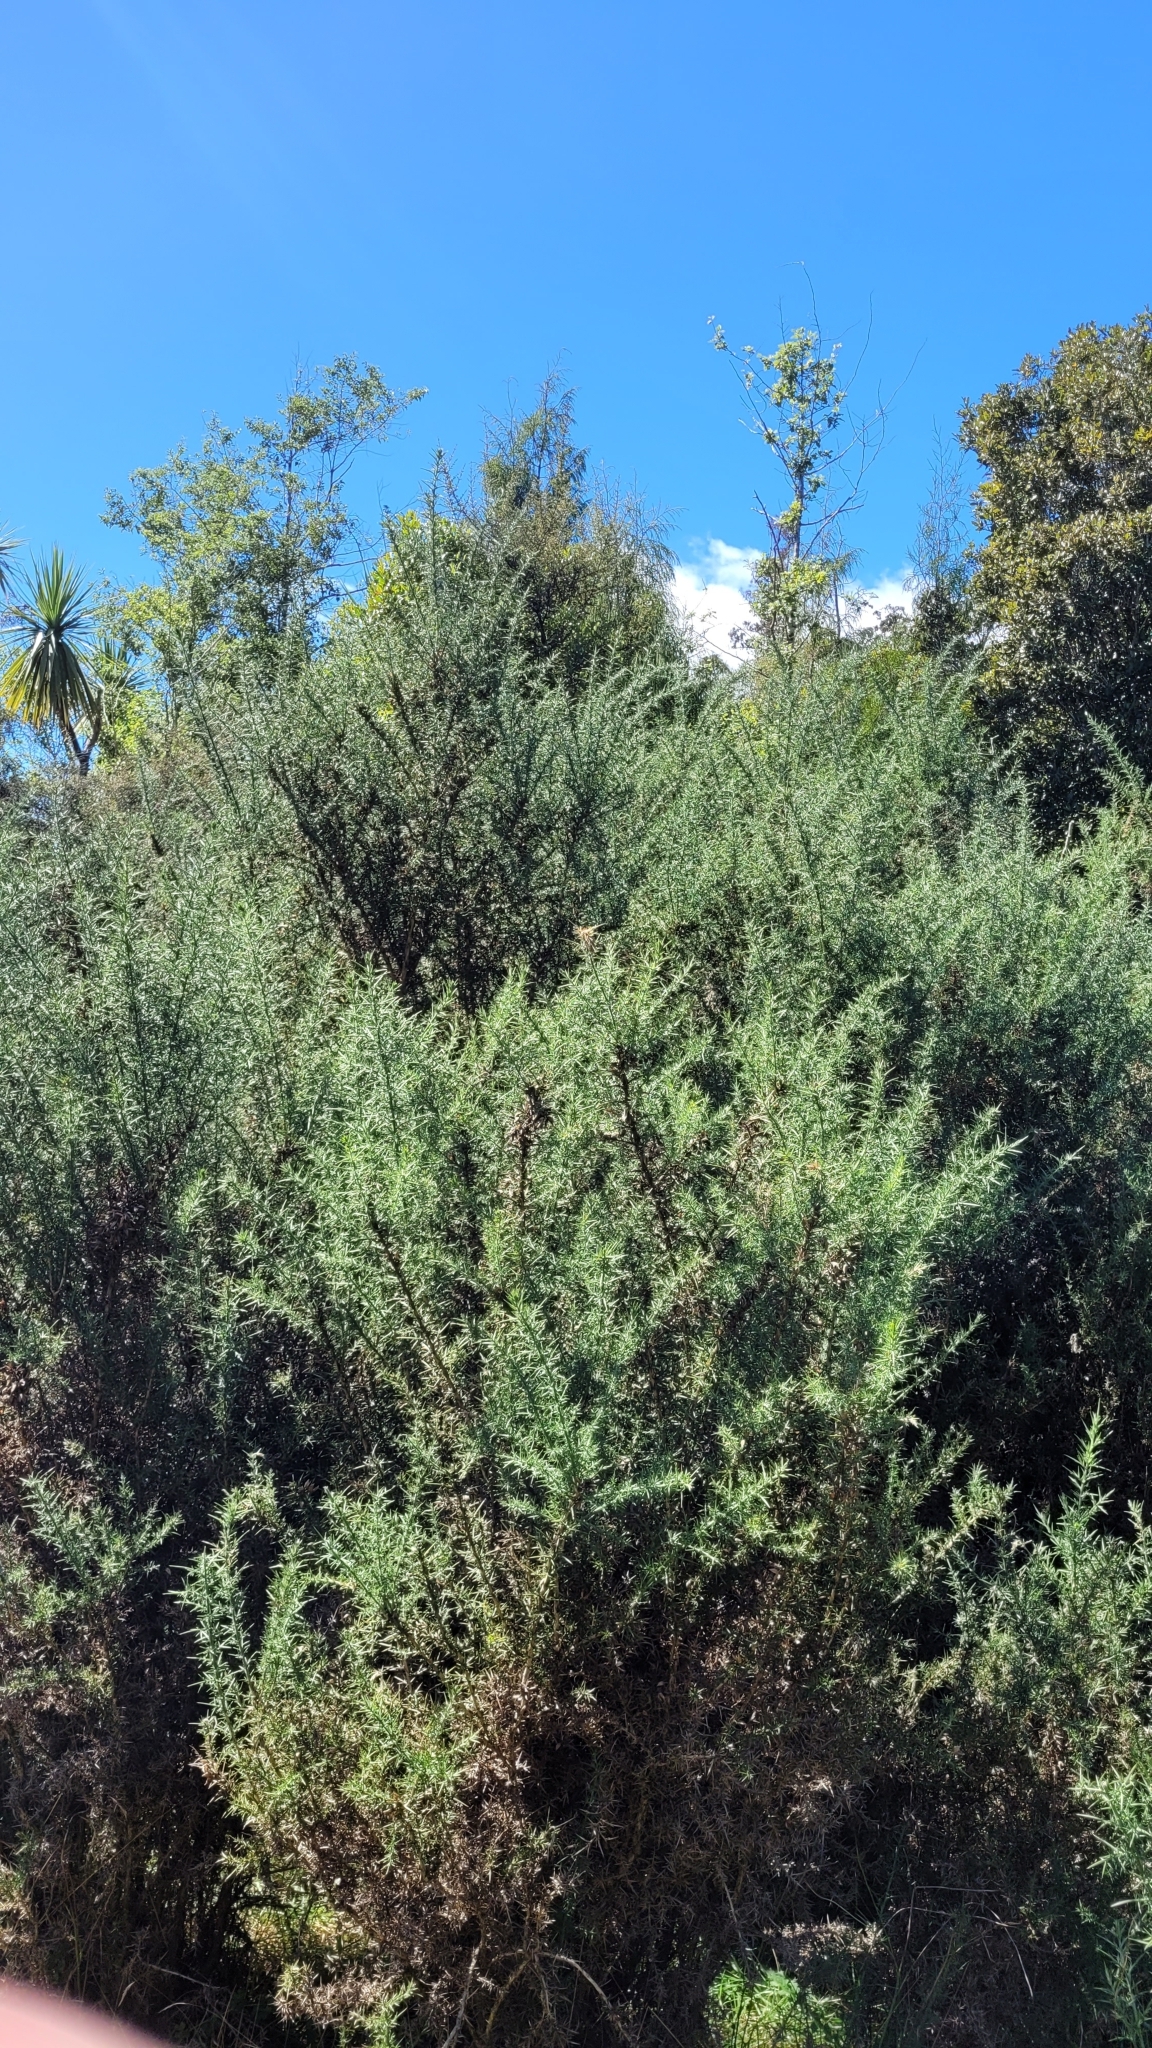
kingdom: Plantae
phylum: Tracheophyta
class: Magnoliopsida
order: Fabales
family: Fabaceae
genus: Ulex
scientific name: Ulex europaeus
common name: Common gorse
